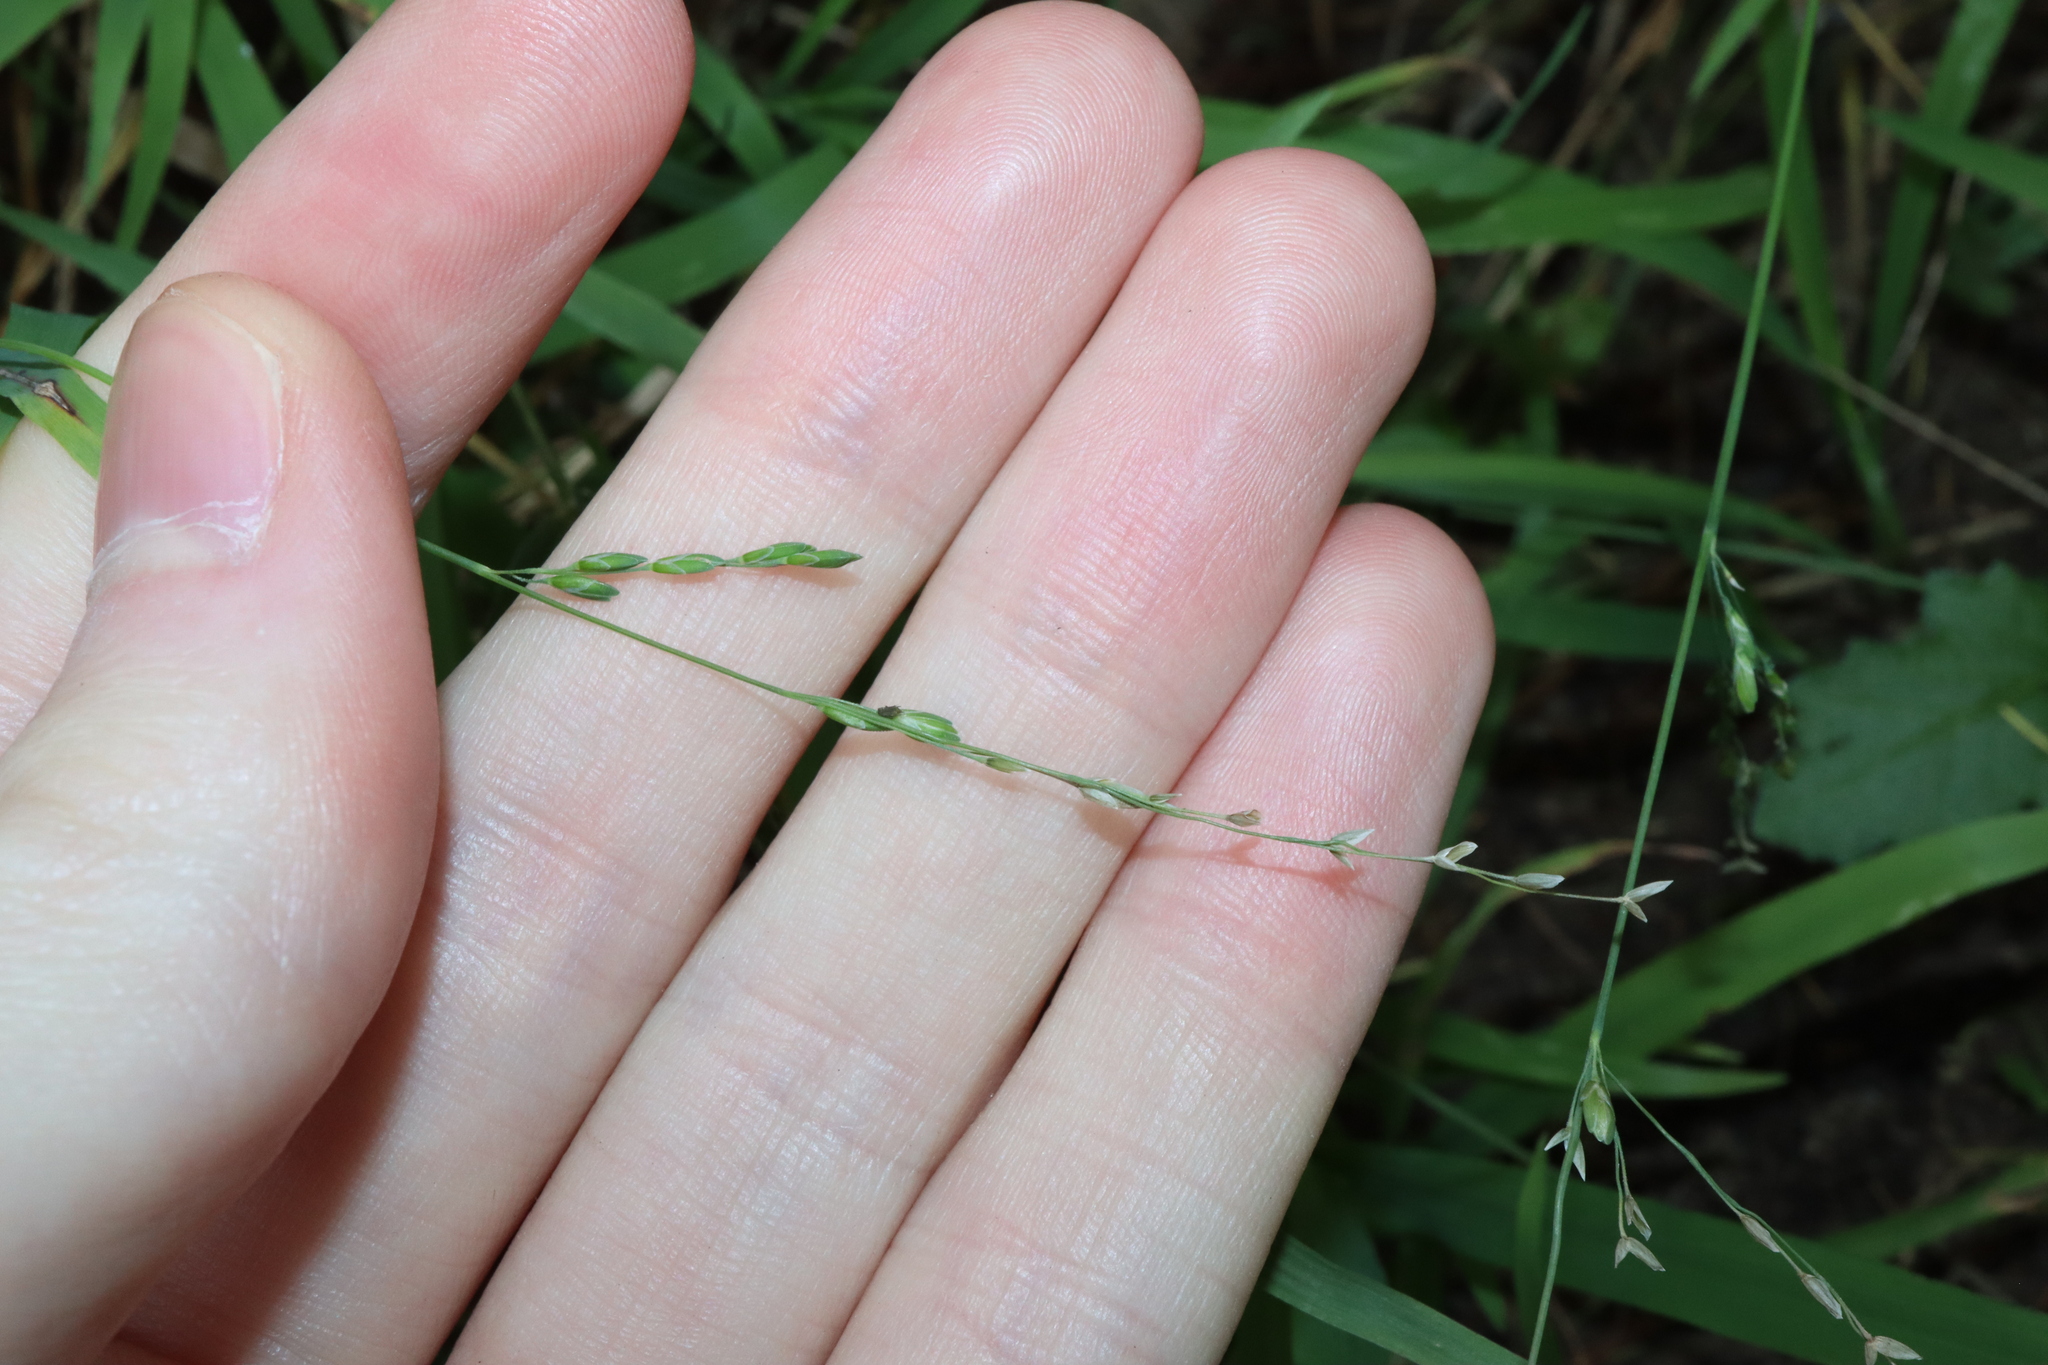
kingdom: Plantae
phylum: Tracheophyta
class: Liliopsida
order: Poales
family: Poaceae
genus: Ehrharta
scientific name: Ehrharta erecta
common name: Panic veldtgrass
